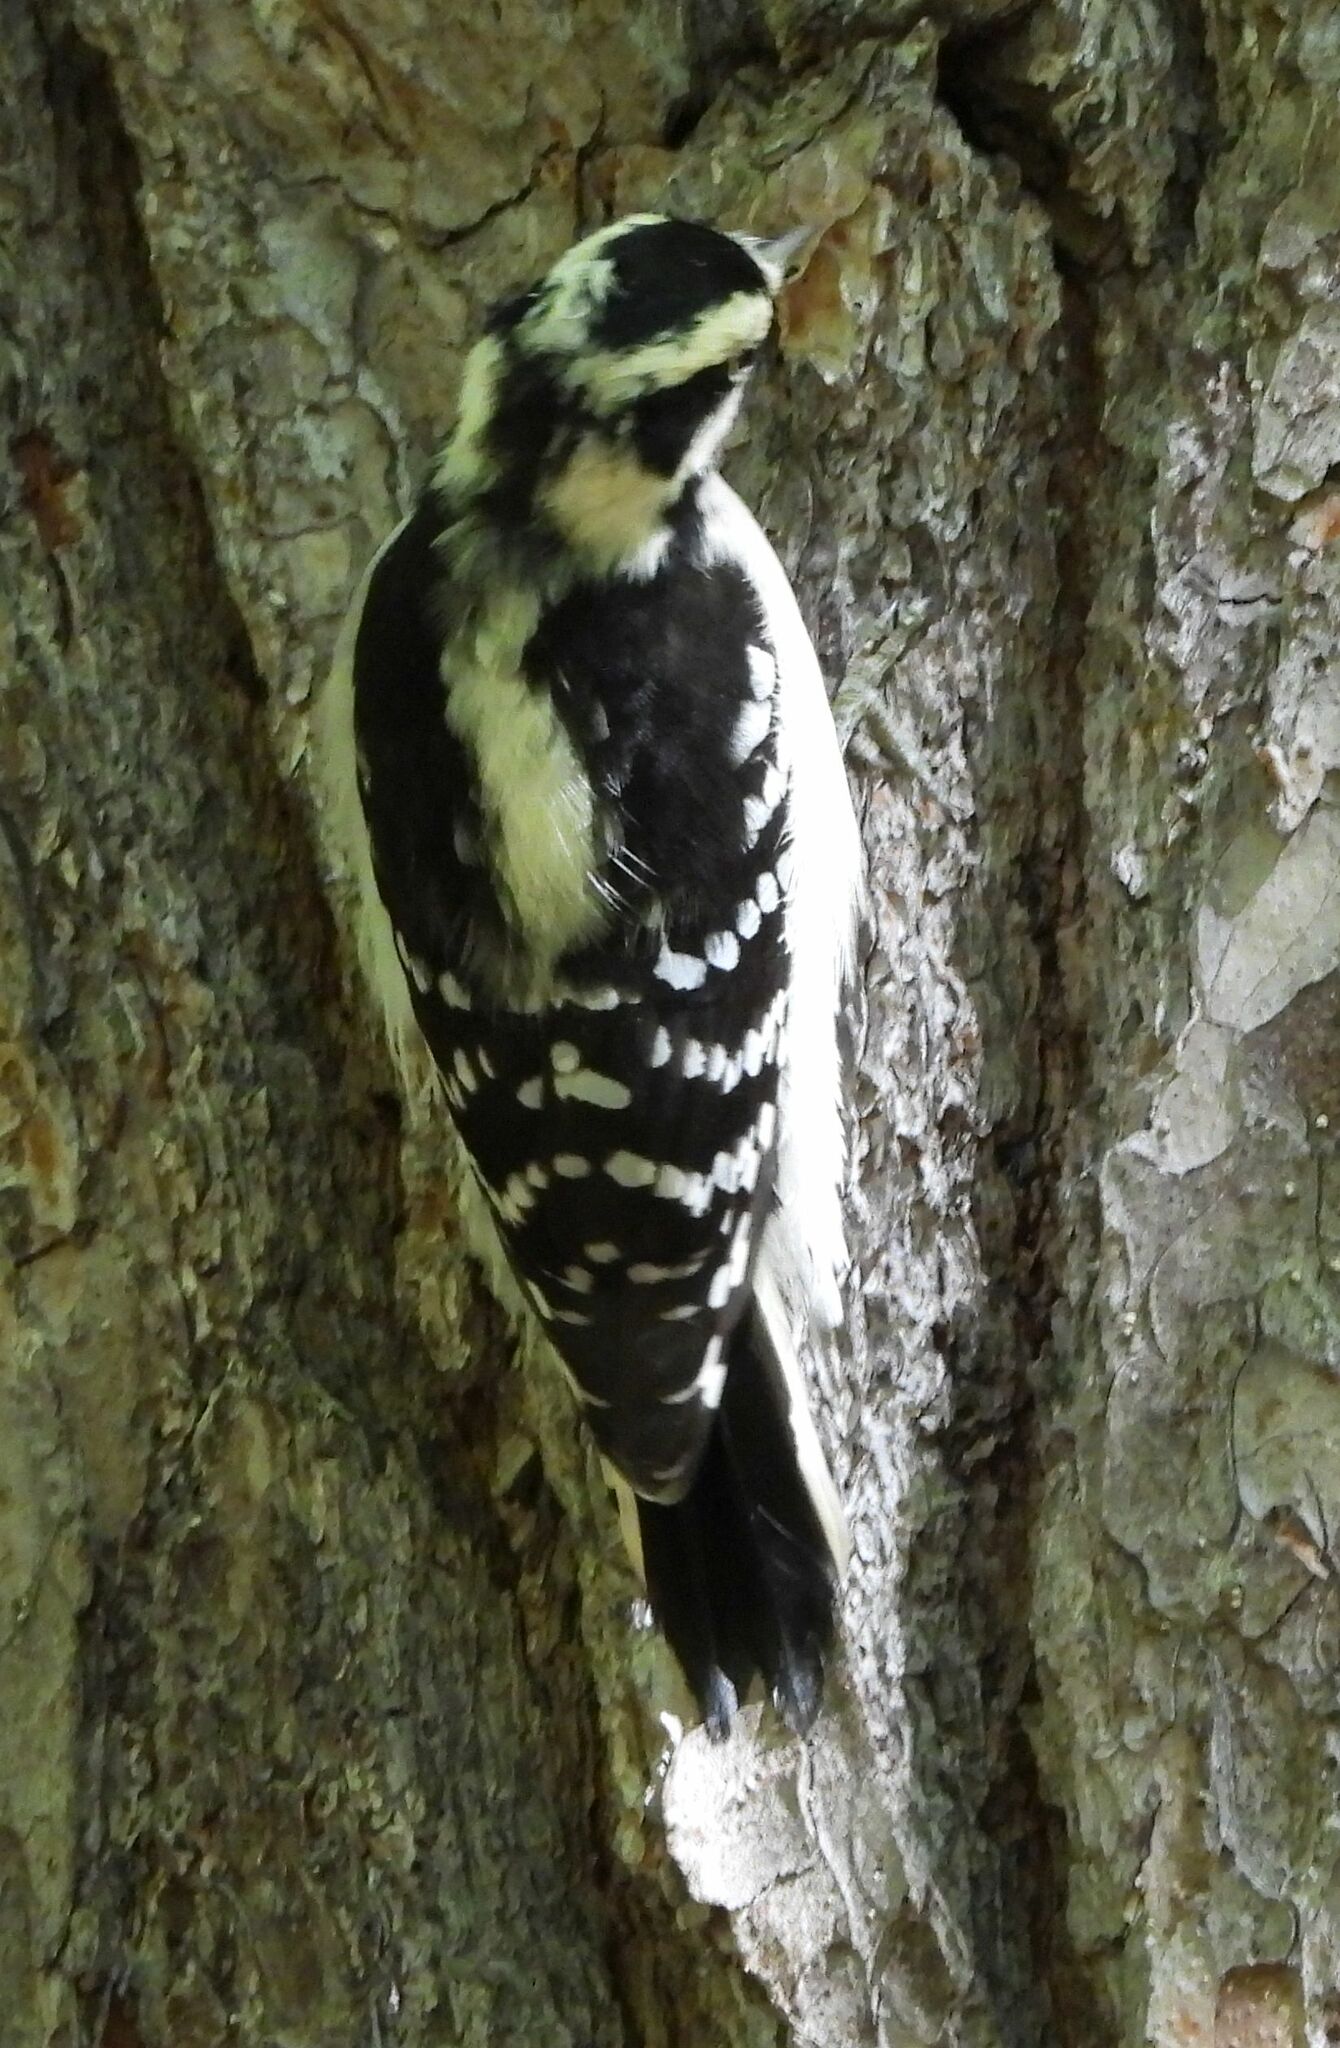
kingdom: Animalia
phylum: Chordata
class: Aves
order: Piciformes
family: Picidae
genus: Dryobates
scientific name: Dryobates pubescens
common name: Downy woodpecker
